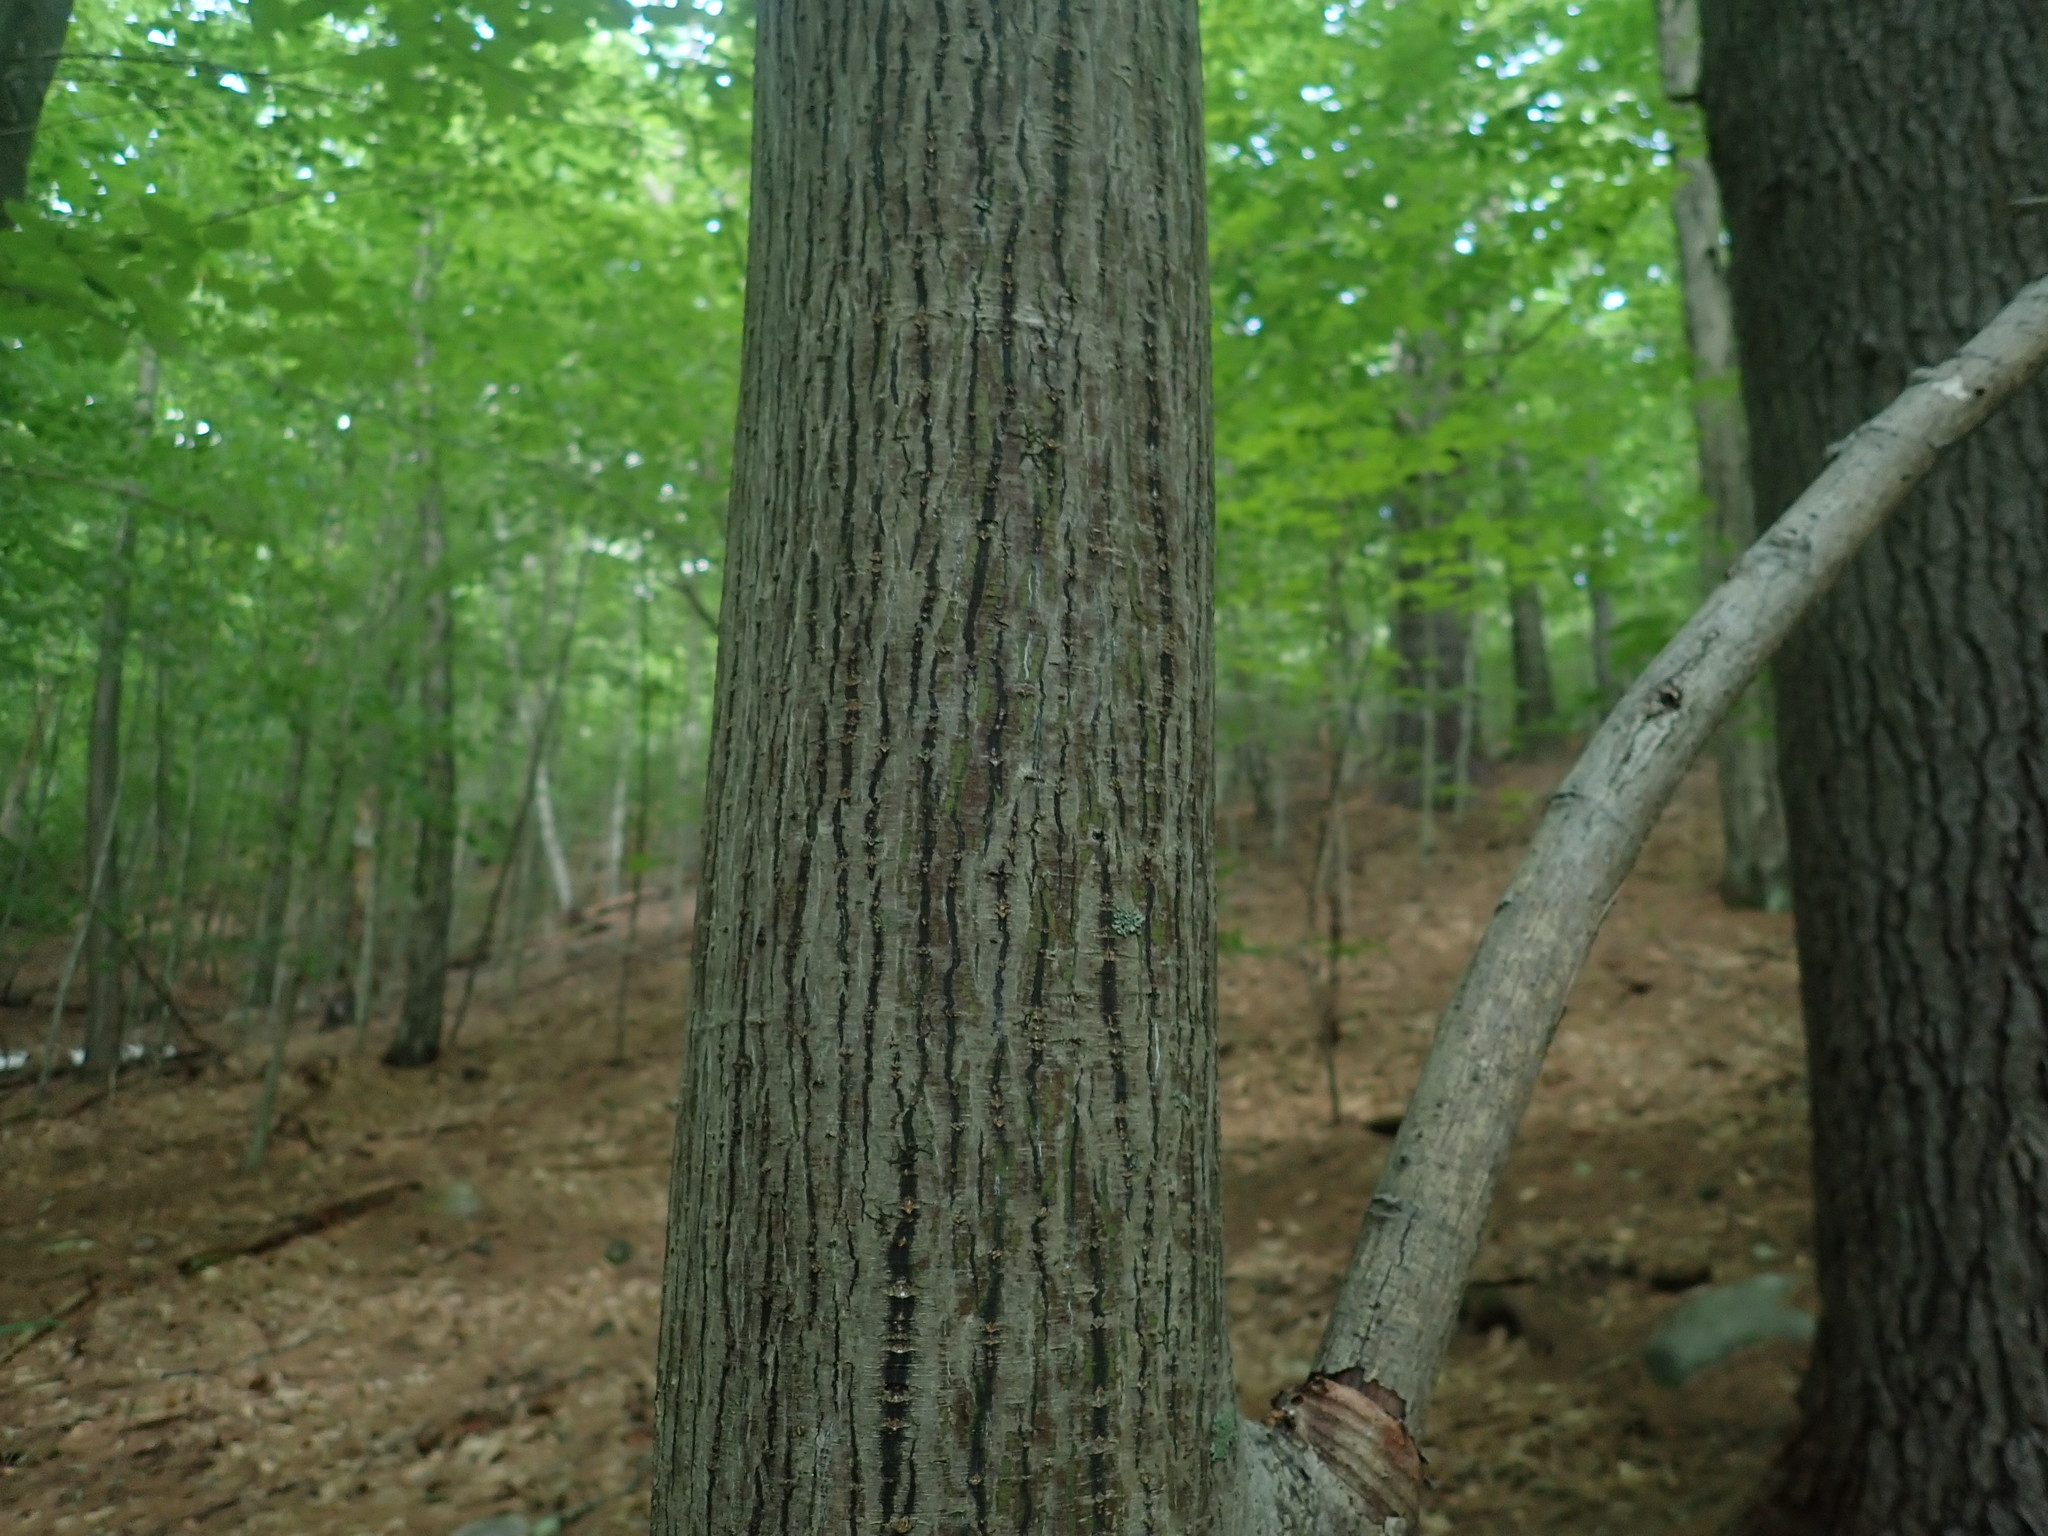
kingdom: Plantae
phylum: Tracheophyta
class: Magnoliopsida
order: Sapindales
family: Sapindaceae
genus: Acer
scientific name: Acer pensylvanicum
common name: Moosewood
